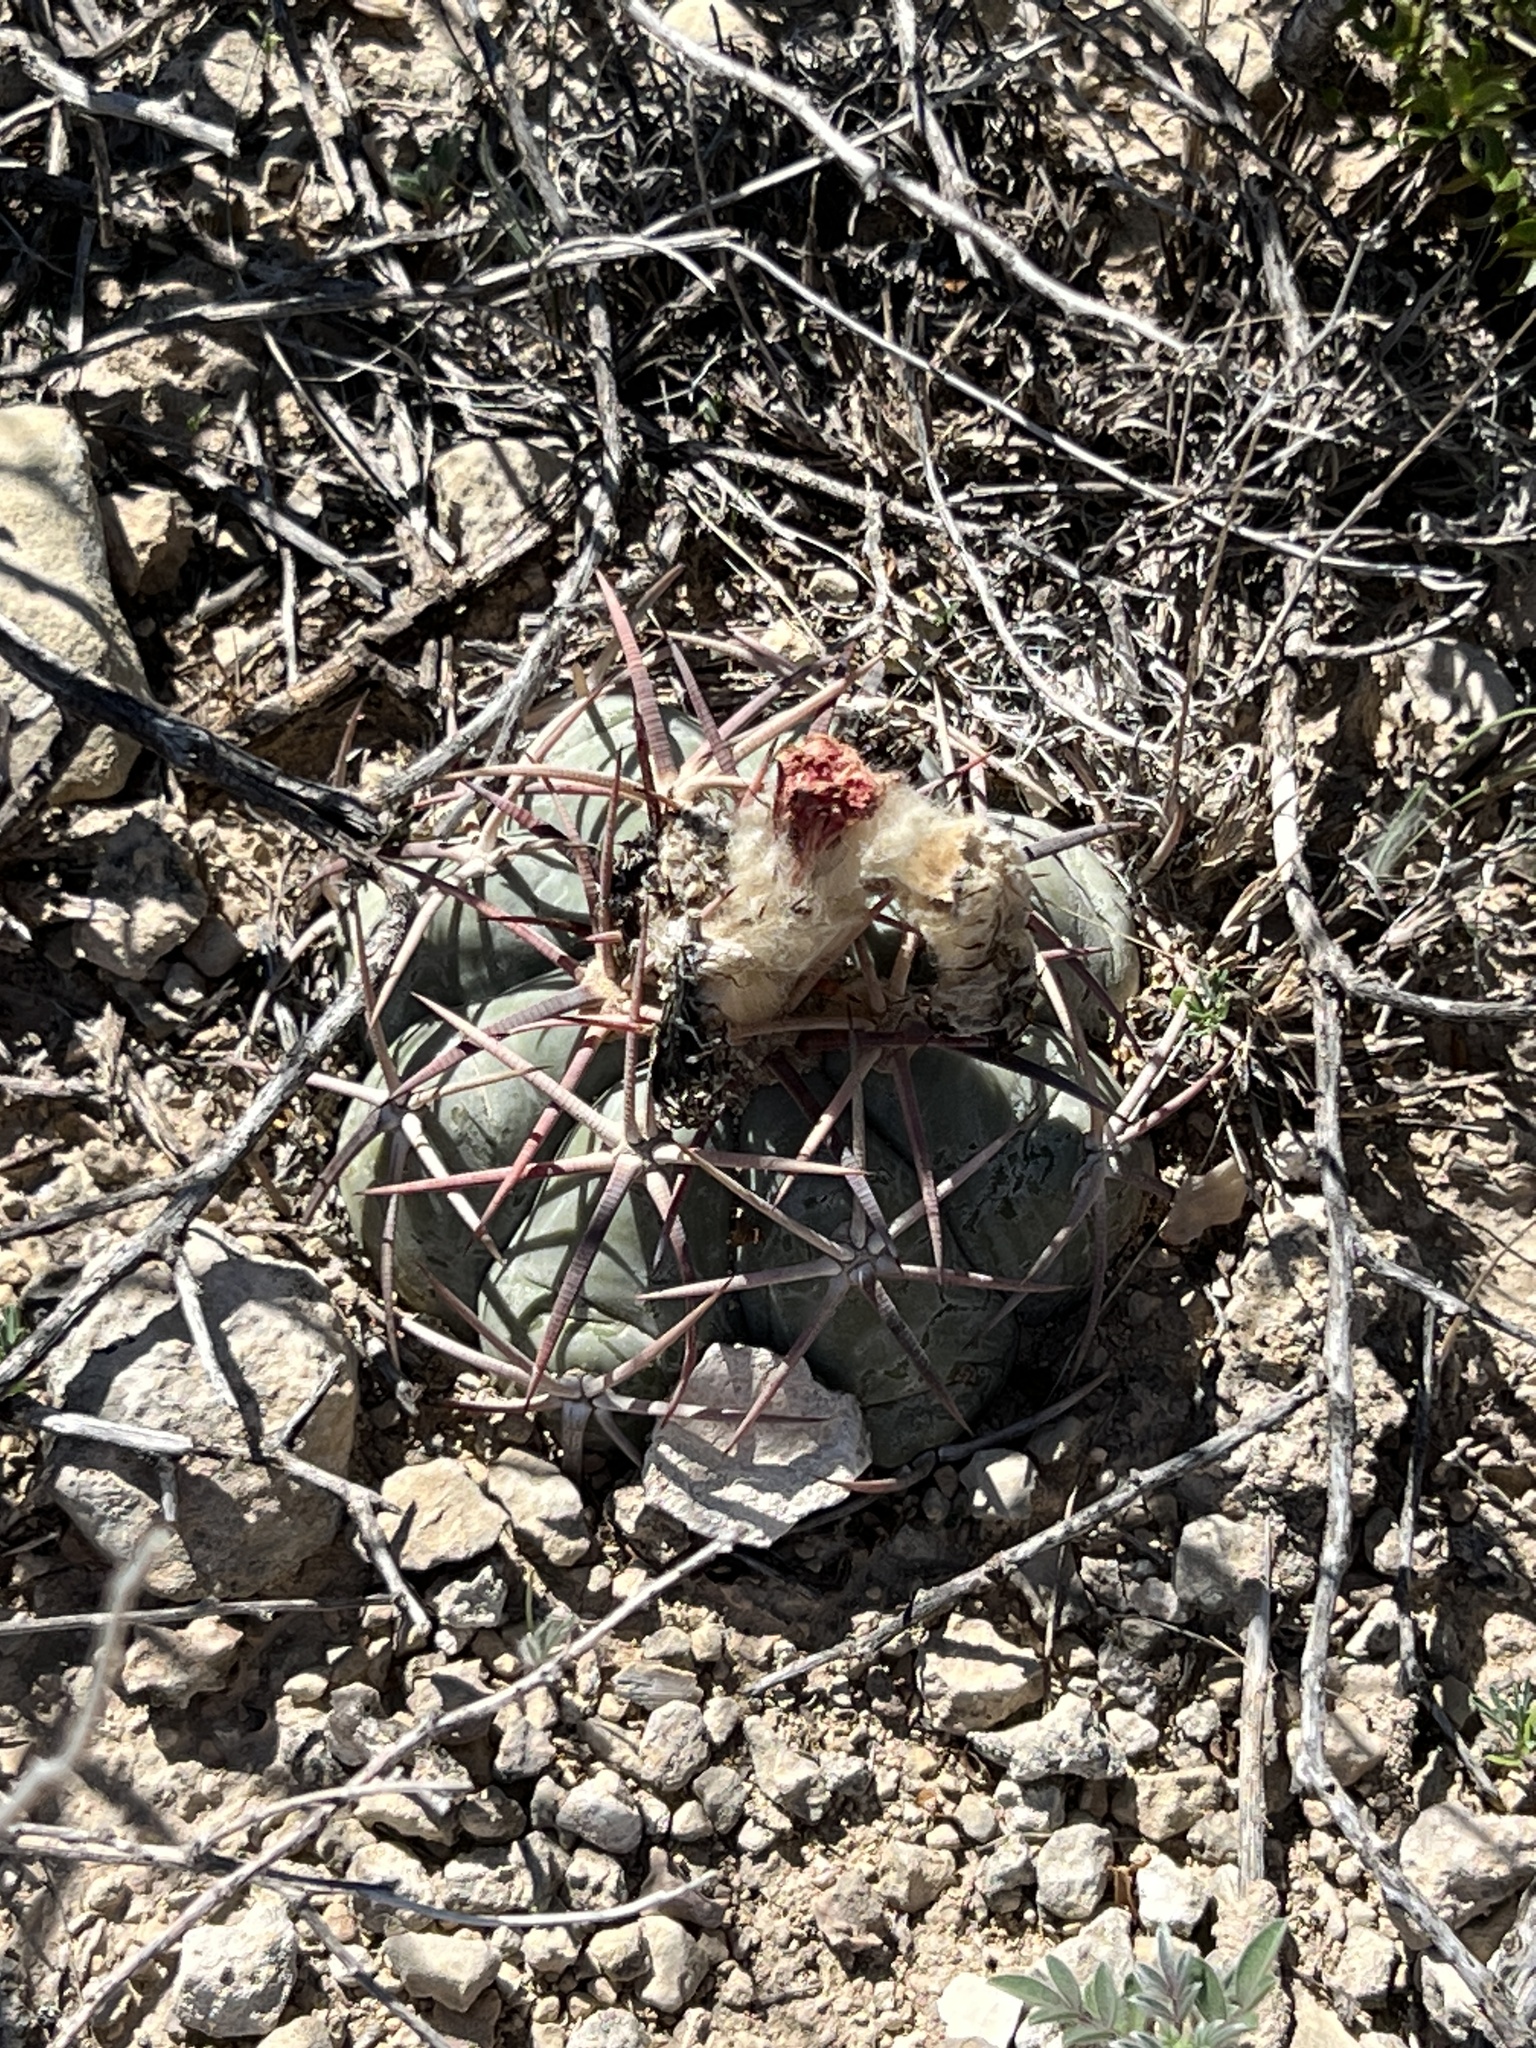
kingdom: Plantae
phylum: Tracheophyta
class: Magnoliopsida
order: Caryophyllales
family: Cactaceae
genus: Echinocactus
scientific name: Echinocactus horizonthalonius
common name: Devilshead
